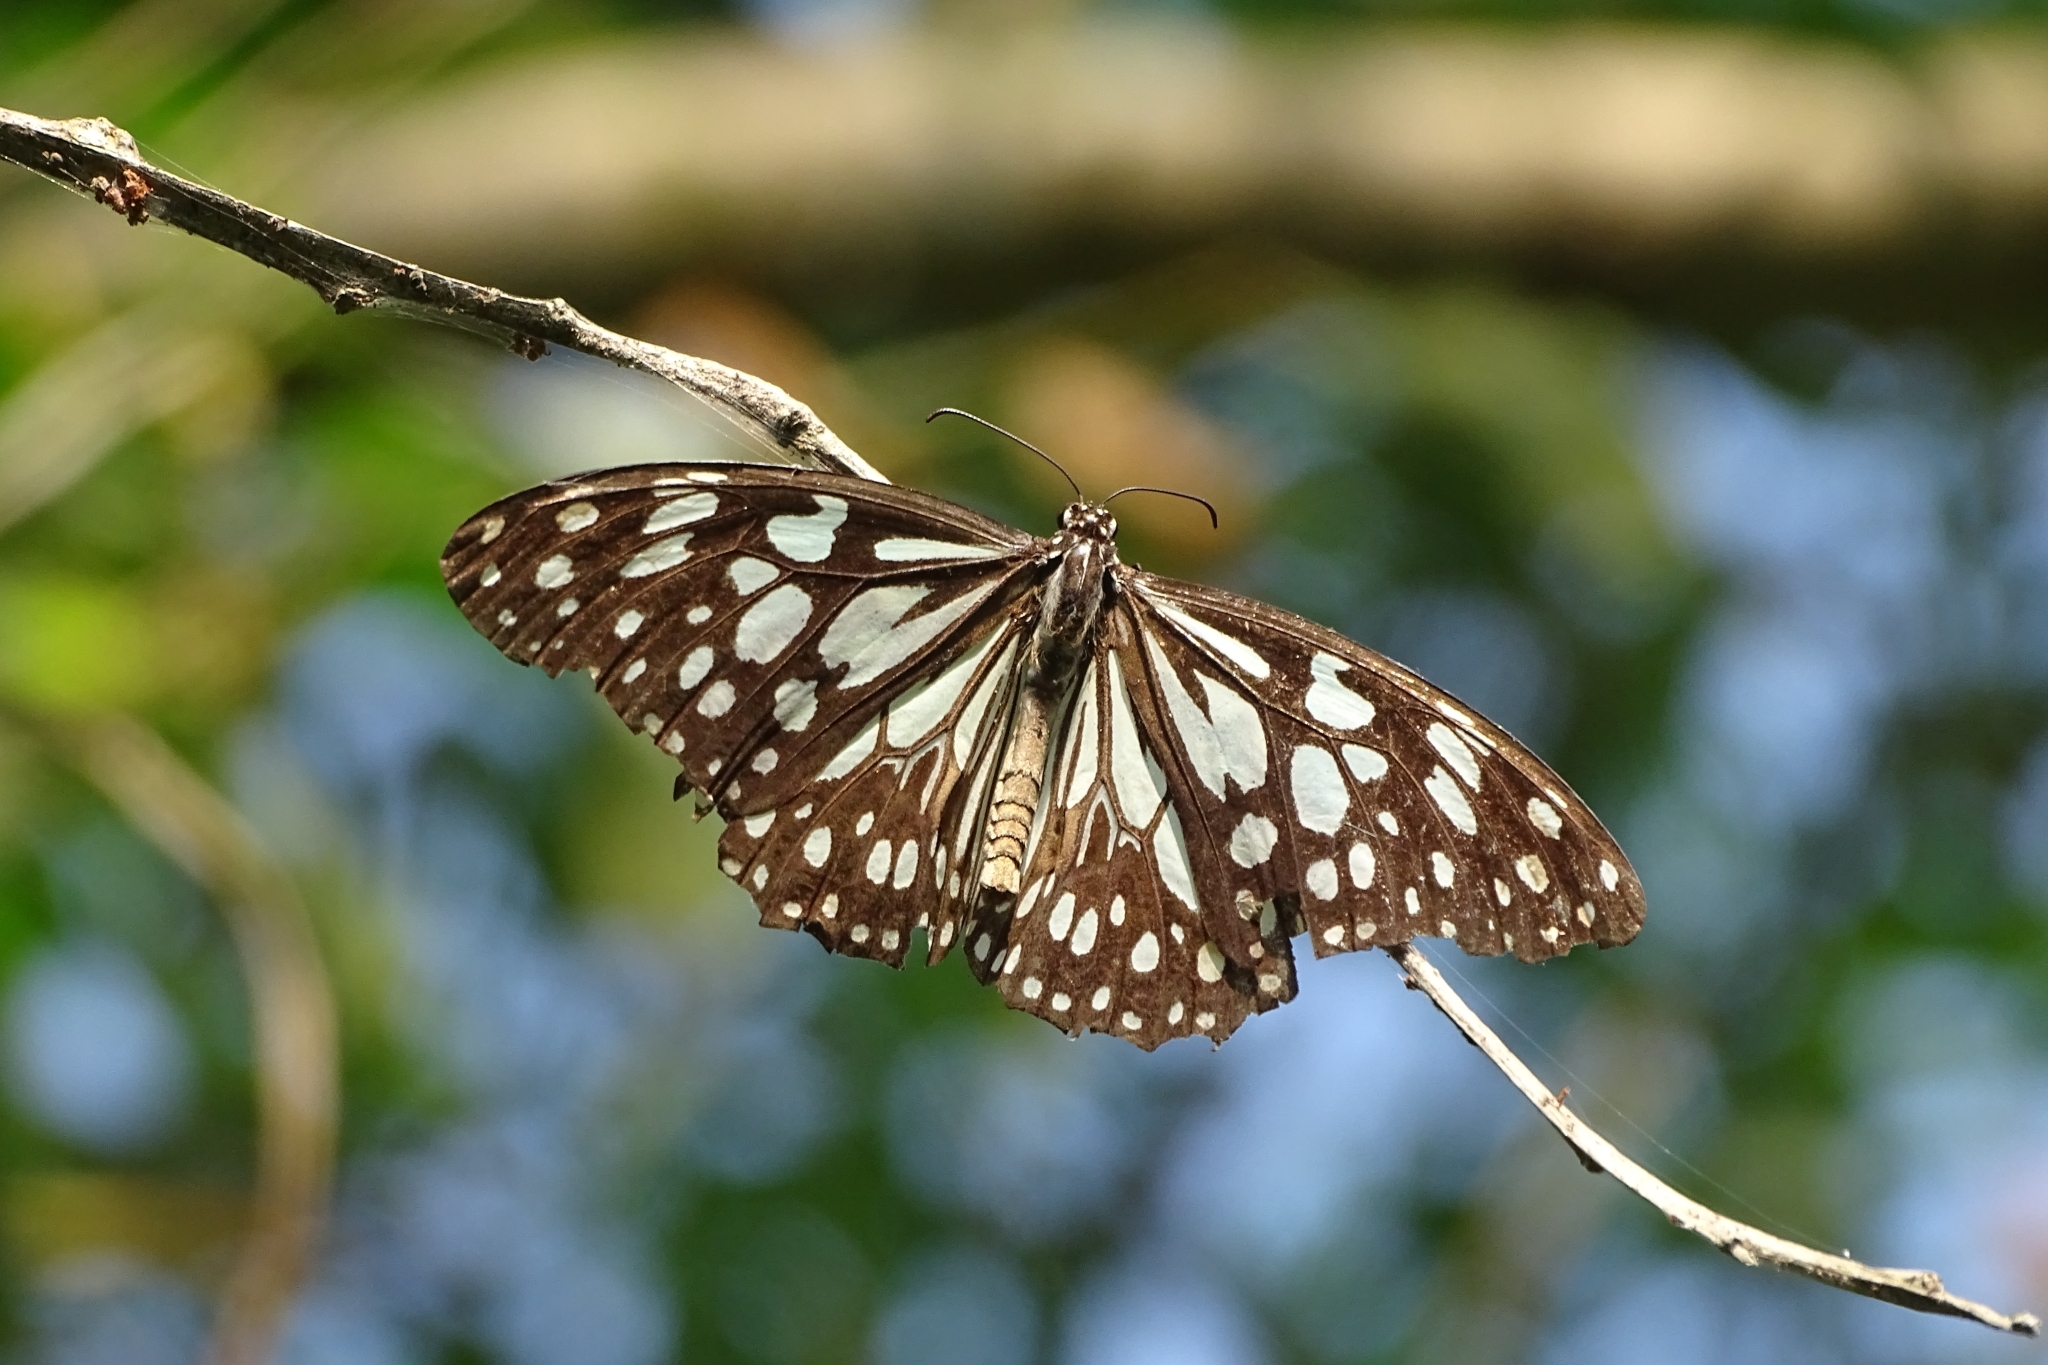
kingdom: Animalia
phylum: Arthropoda
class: Insecta
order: Lepidoptera
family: Nymphalidae
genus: Tirumala
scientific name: Tirumala limniace
